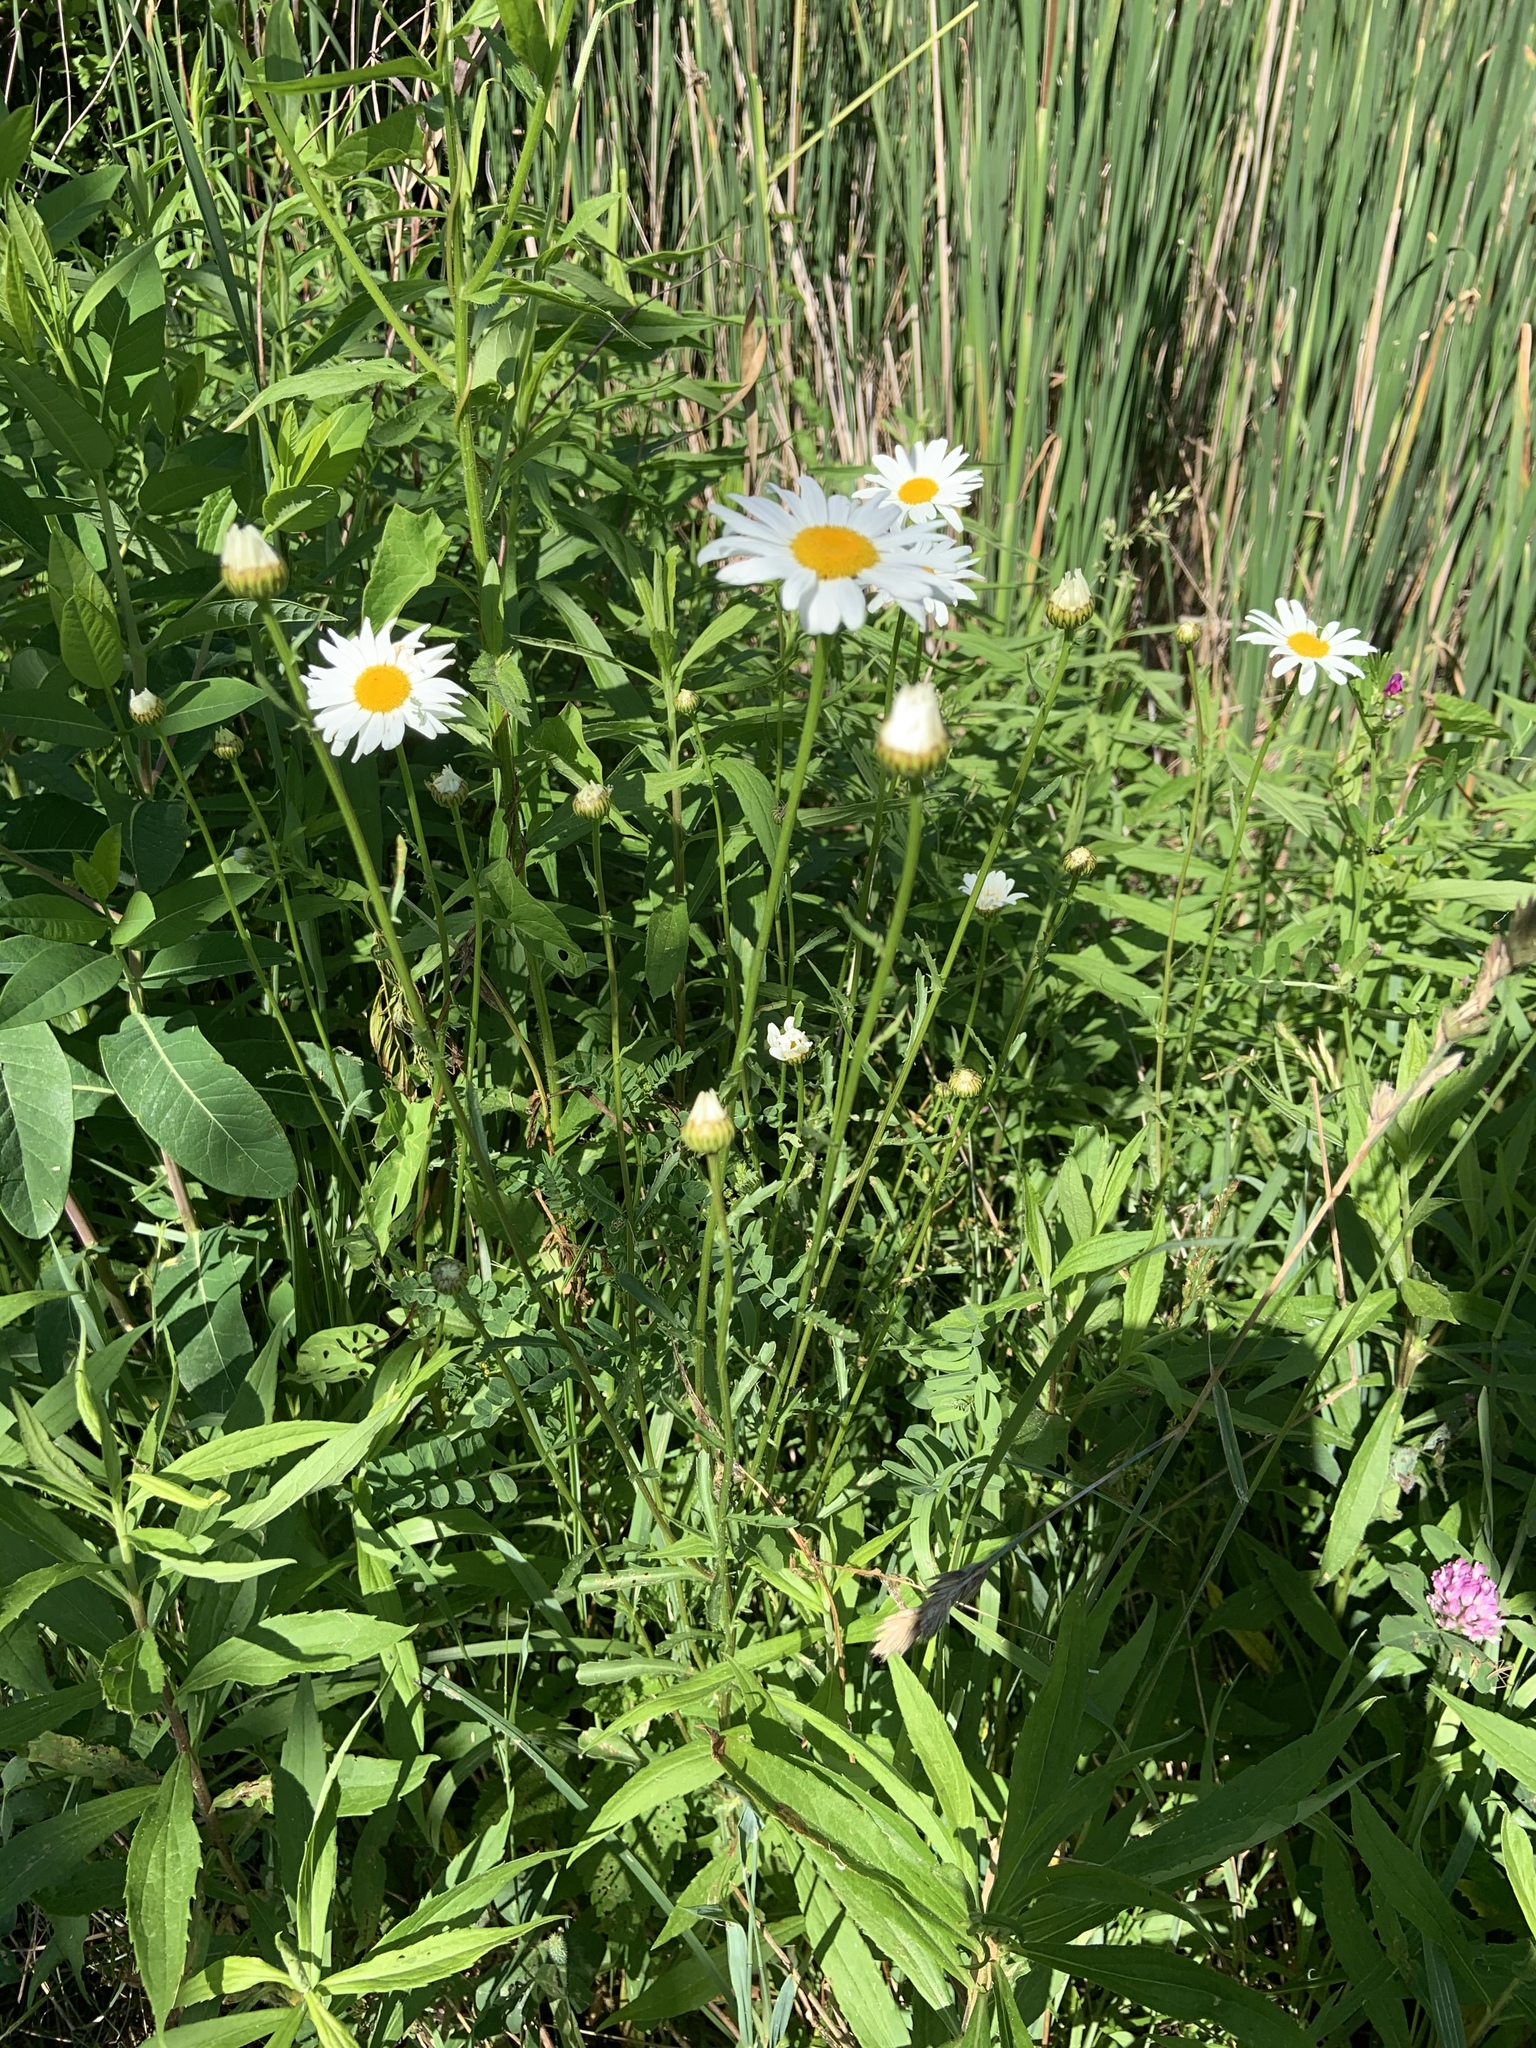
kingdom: Plantae
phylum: Tracheophyta
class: Magnoliopsida
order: Asterales
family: Asteraceae
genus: Leucanthemum
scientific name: Leucanthemum vulgare
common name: Oxeye daisy
